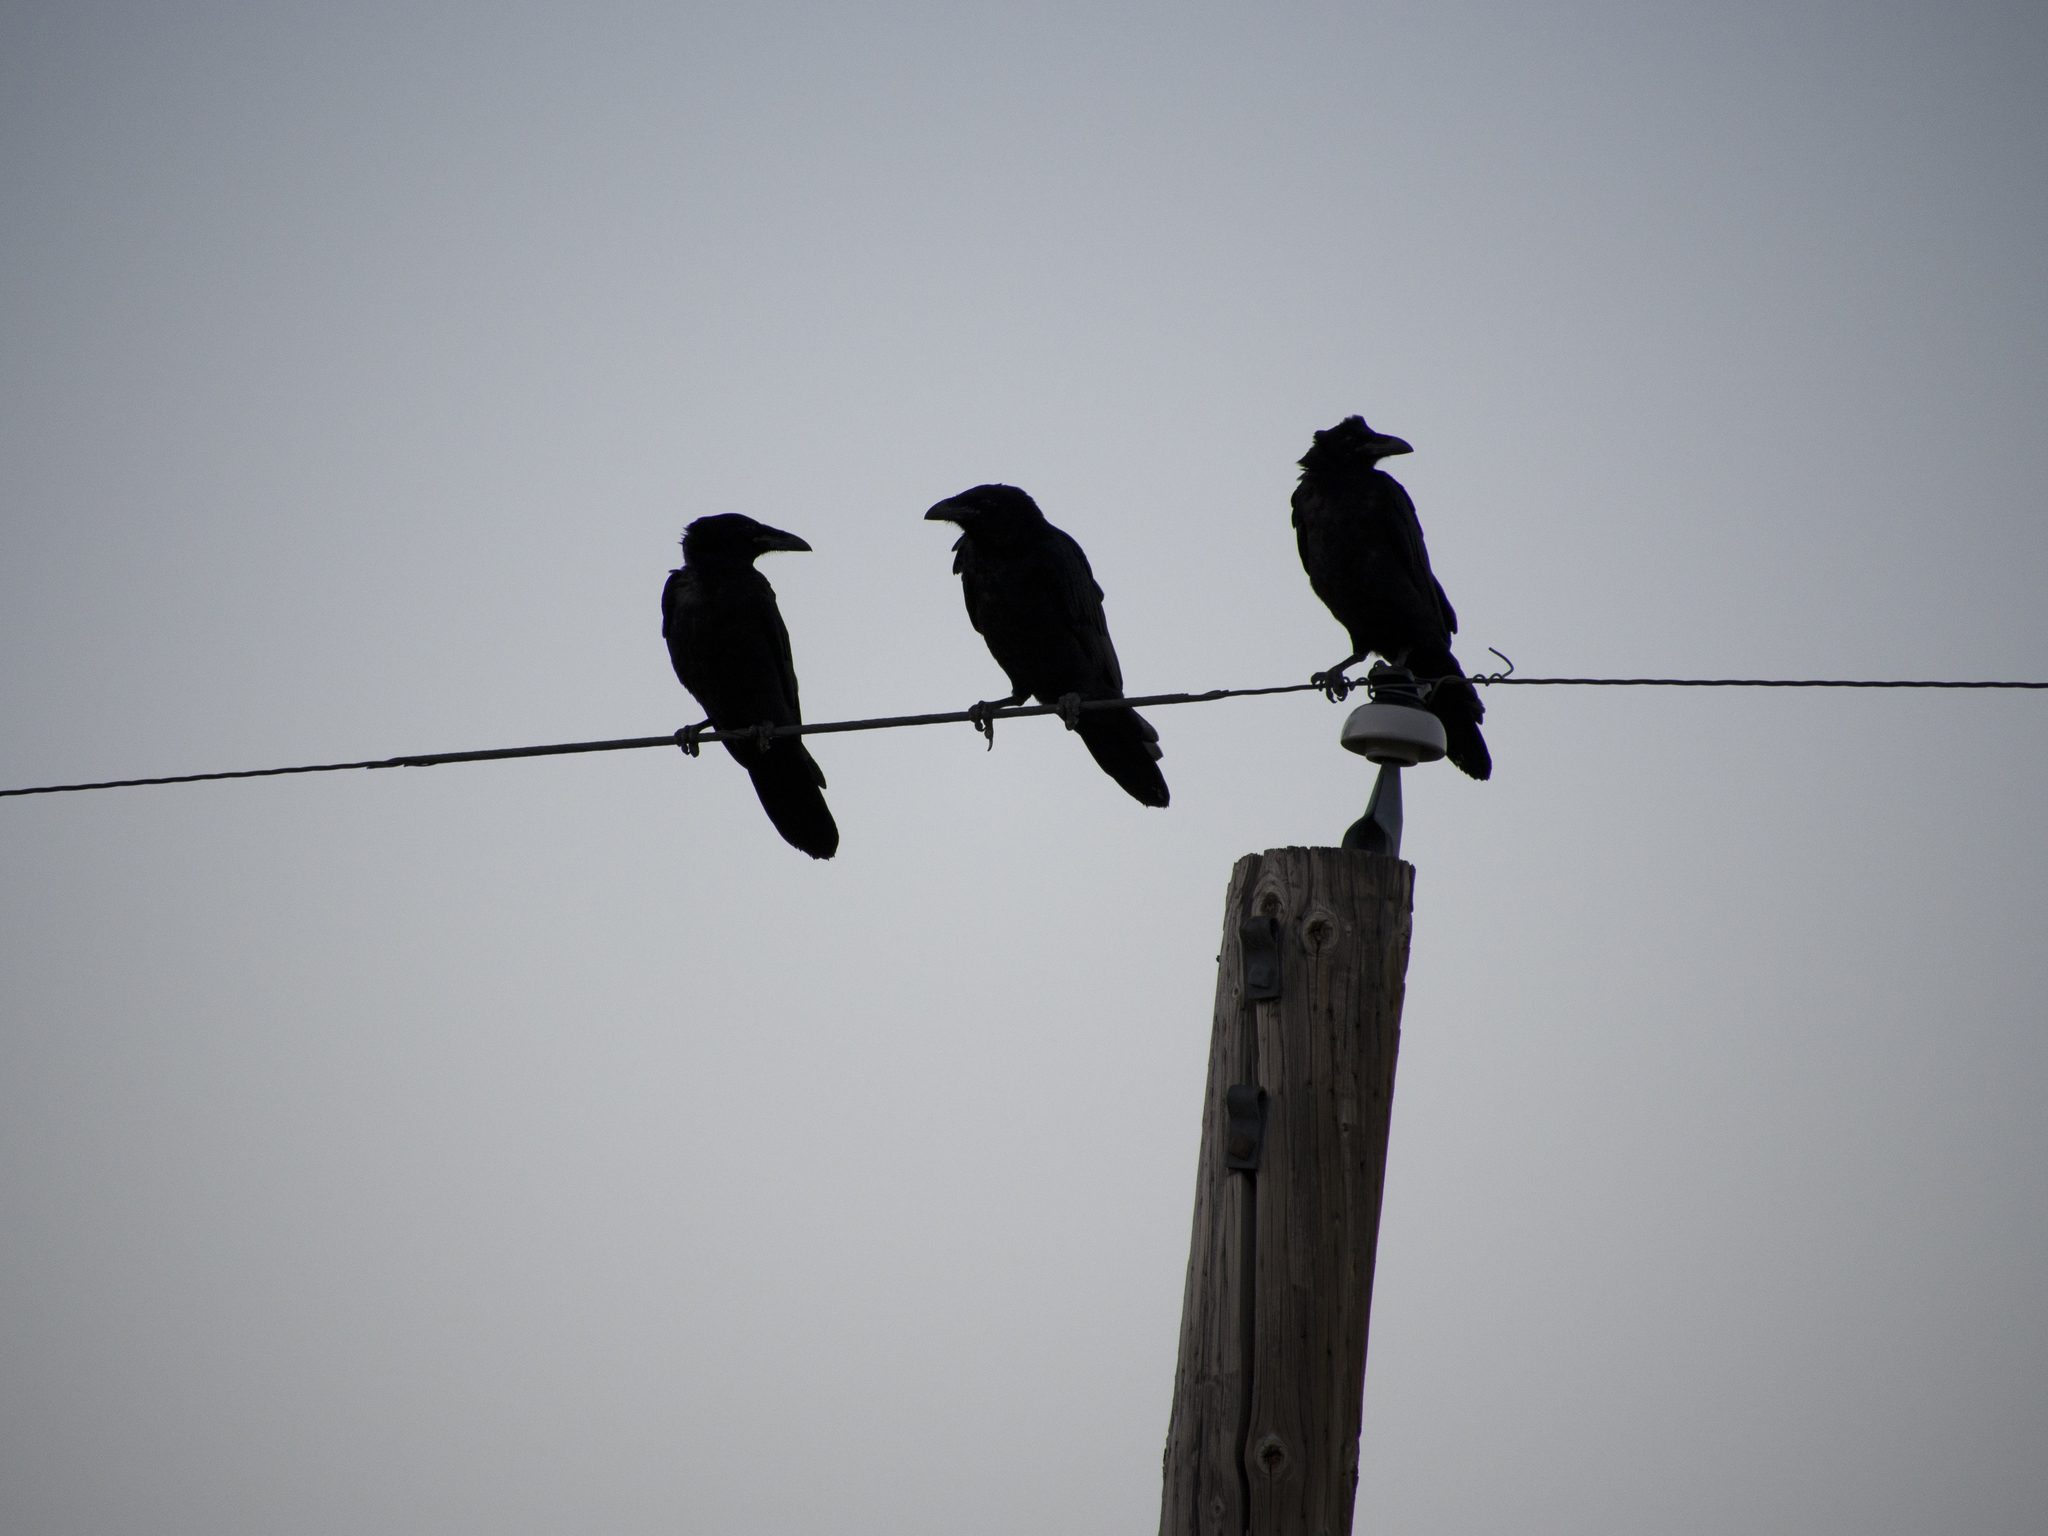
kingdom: Animalia
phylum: Chordata
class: Aves
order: Passeriformes
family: Corvidae
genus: Corvus
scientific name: Corvus corax
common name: Common raven
